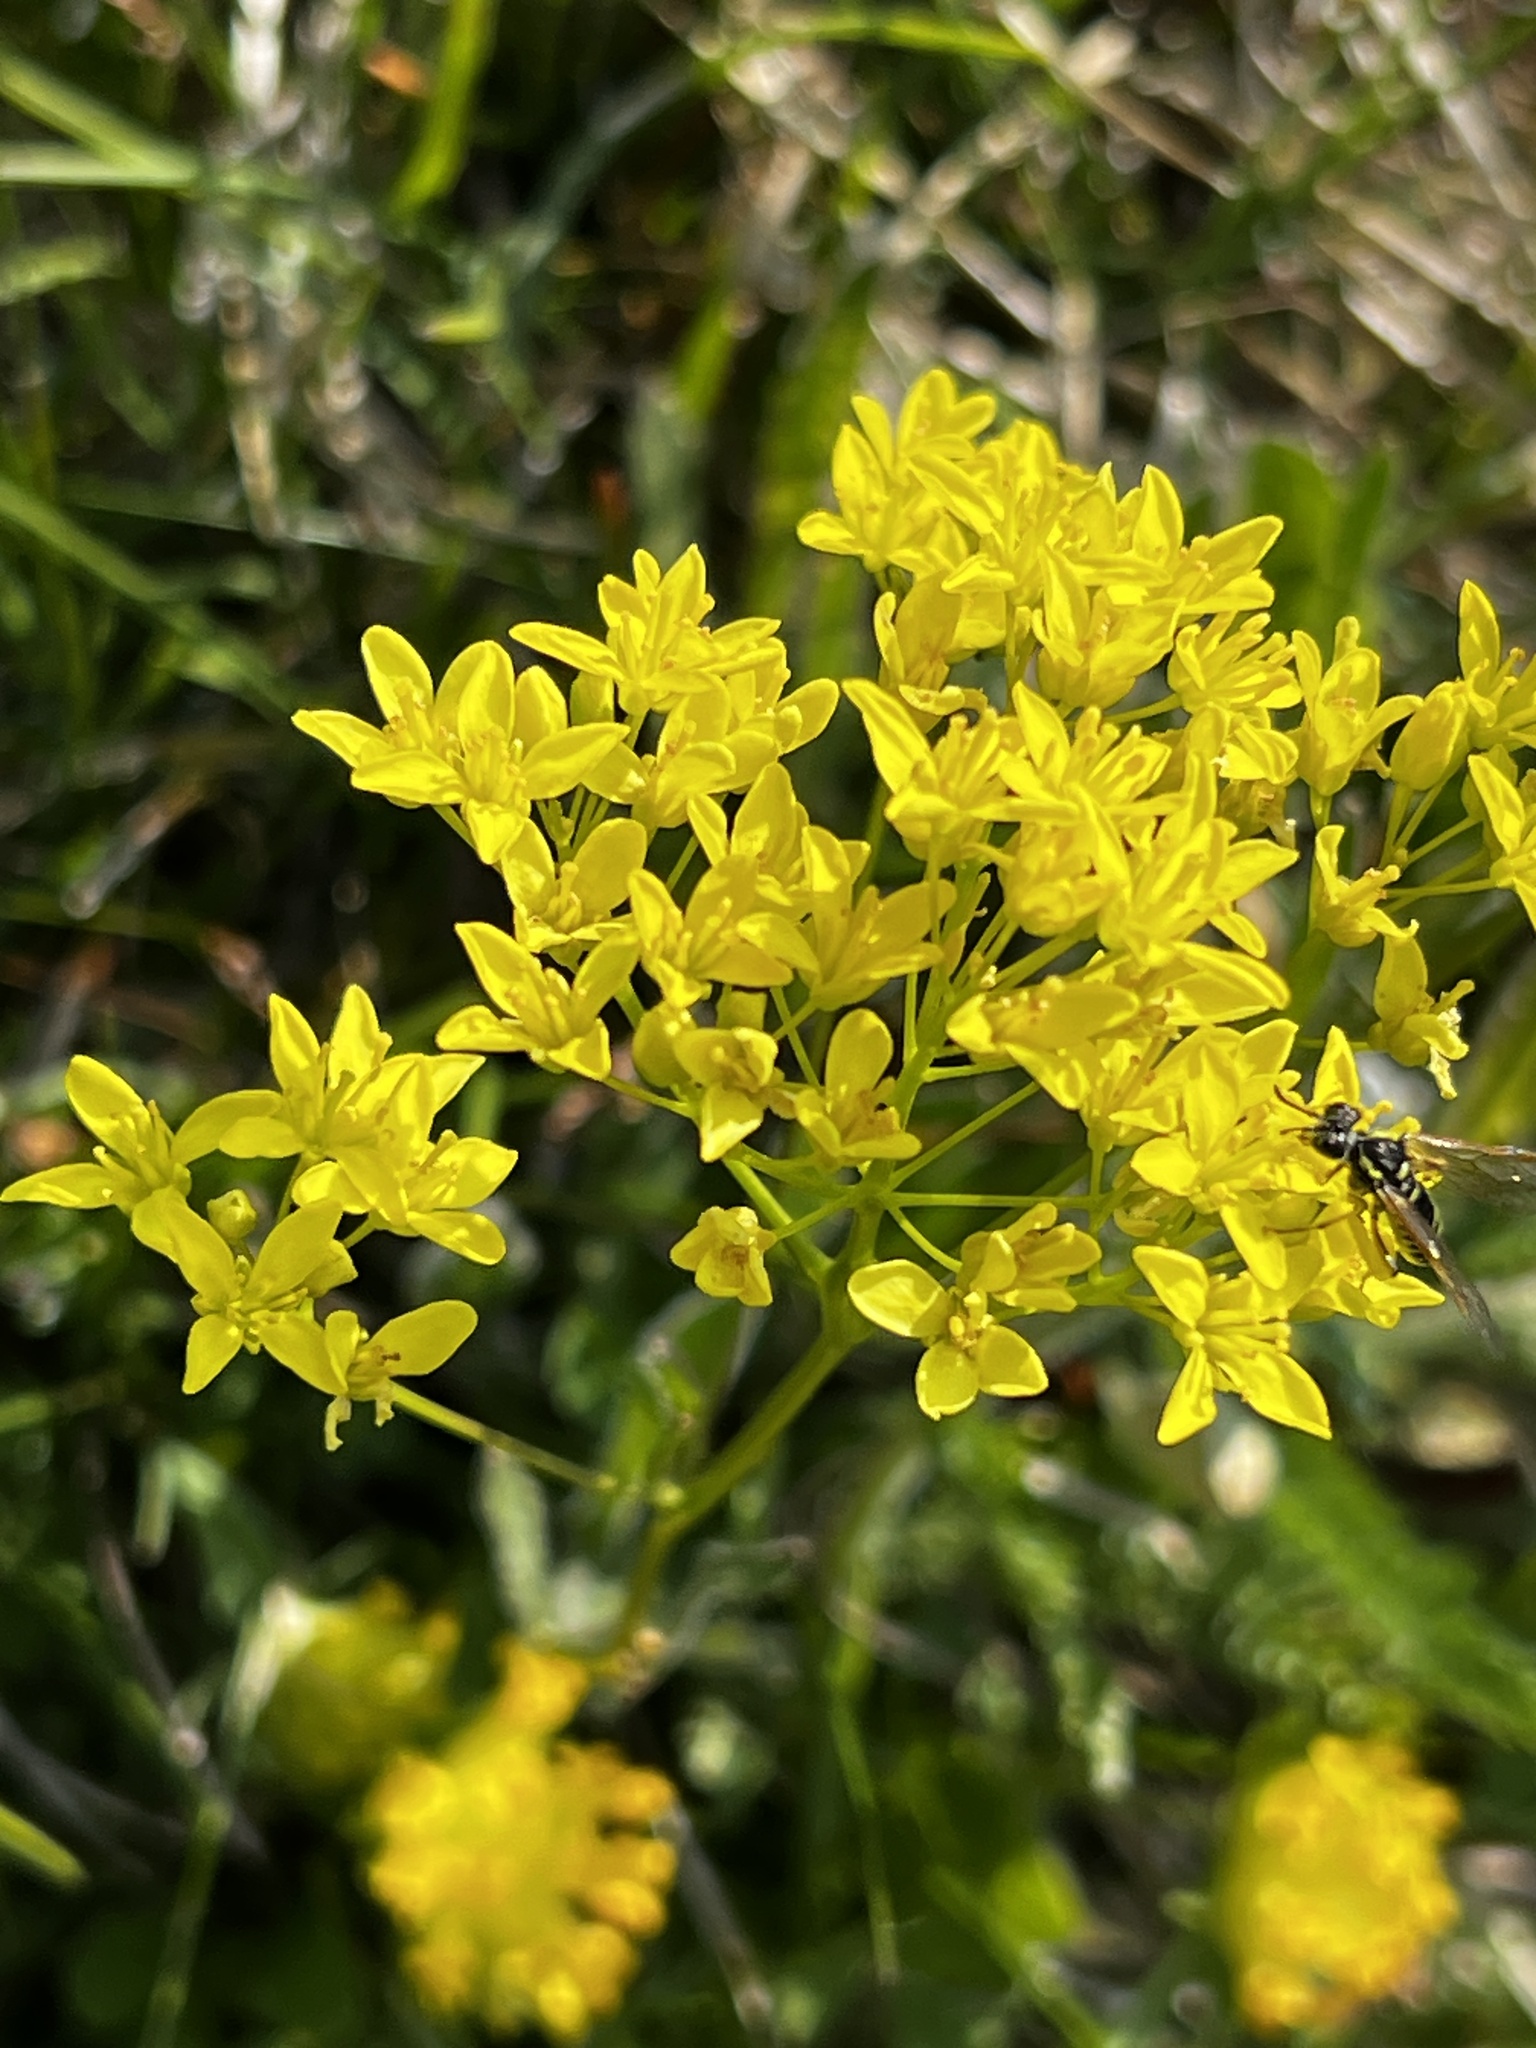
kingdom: Plantae
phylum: Tracheophyta
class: Magnoliopsida
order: Brassicales
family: Brassicaceae
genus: Biscutella
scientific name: Biscutella laevigata
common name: Buckler mustard
